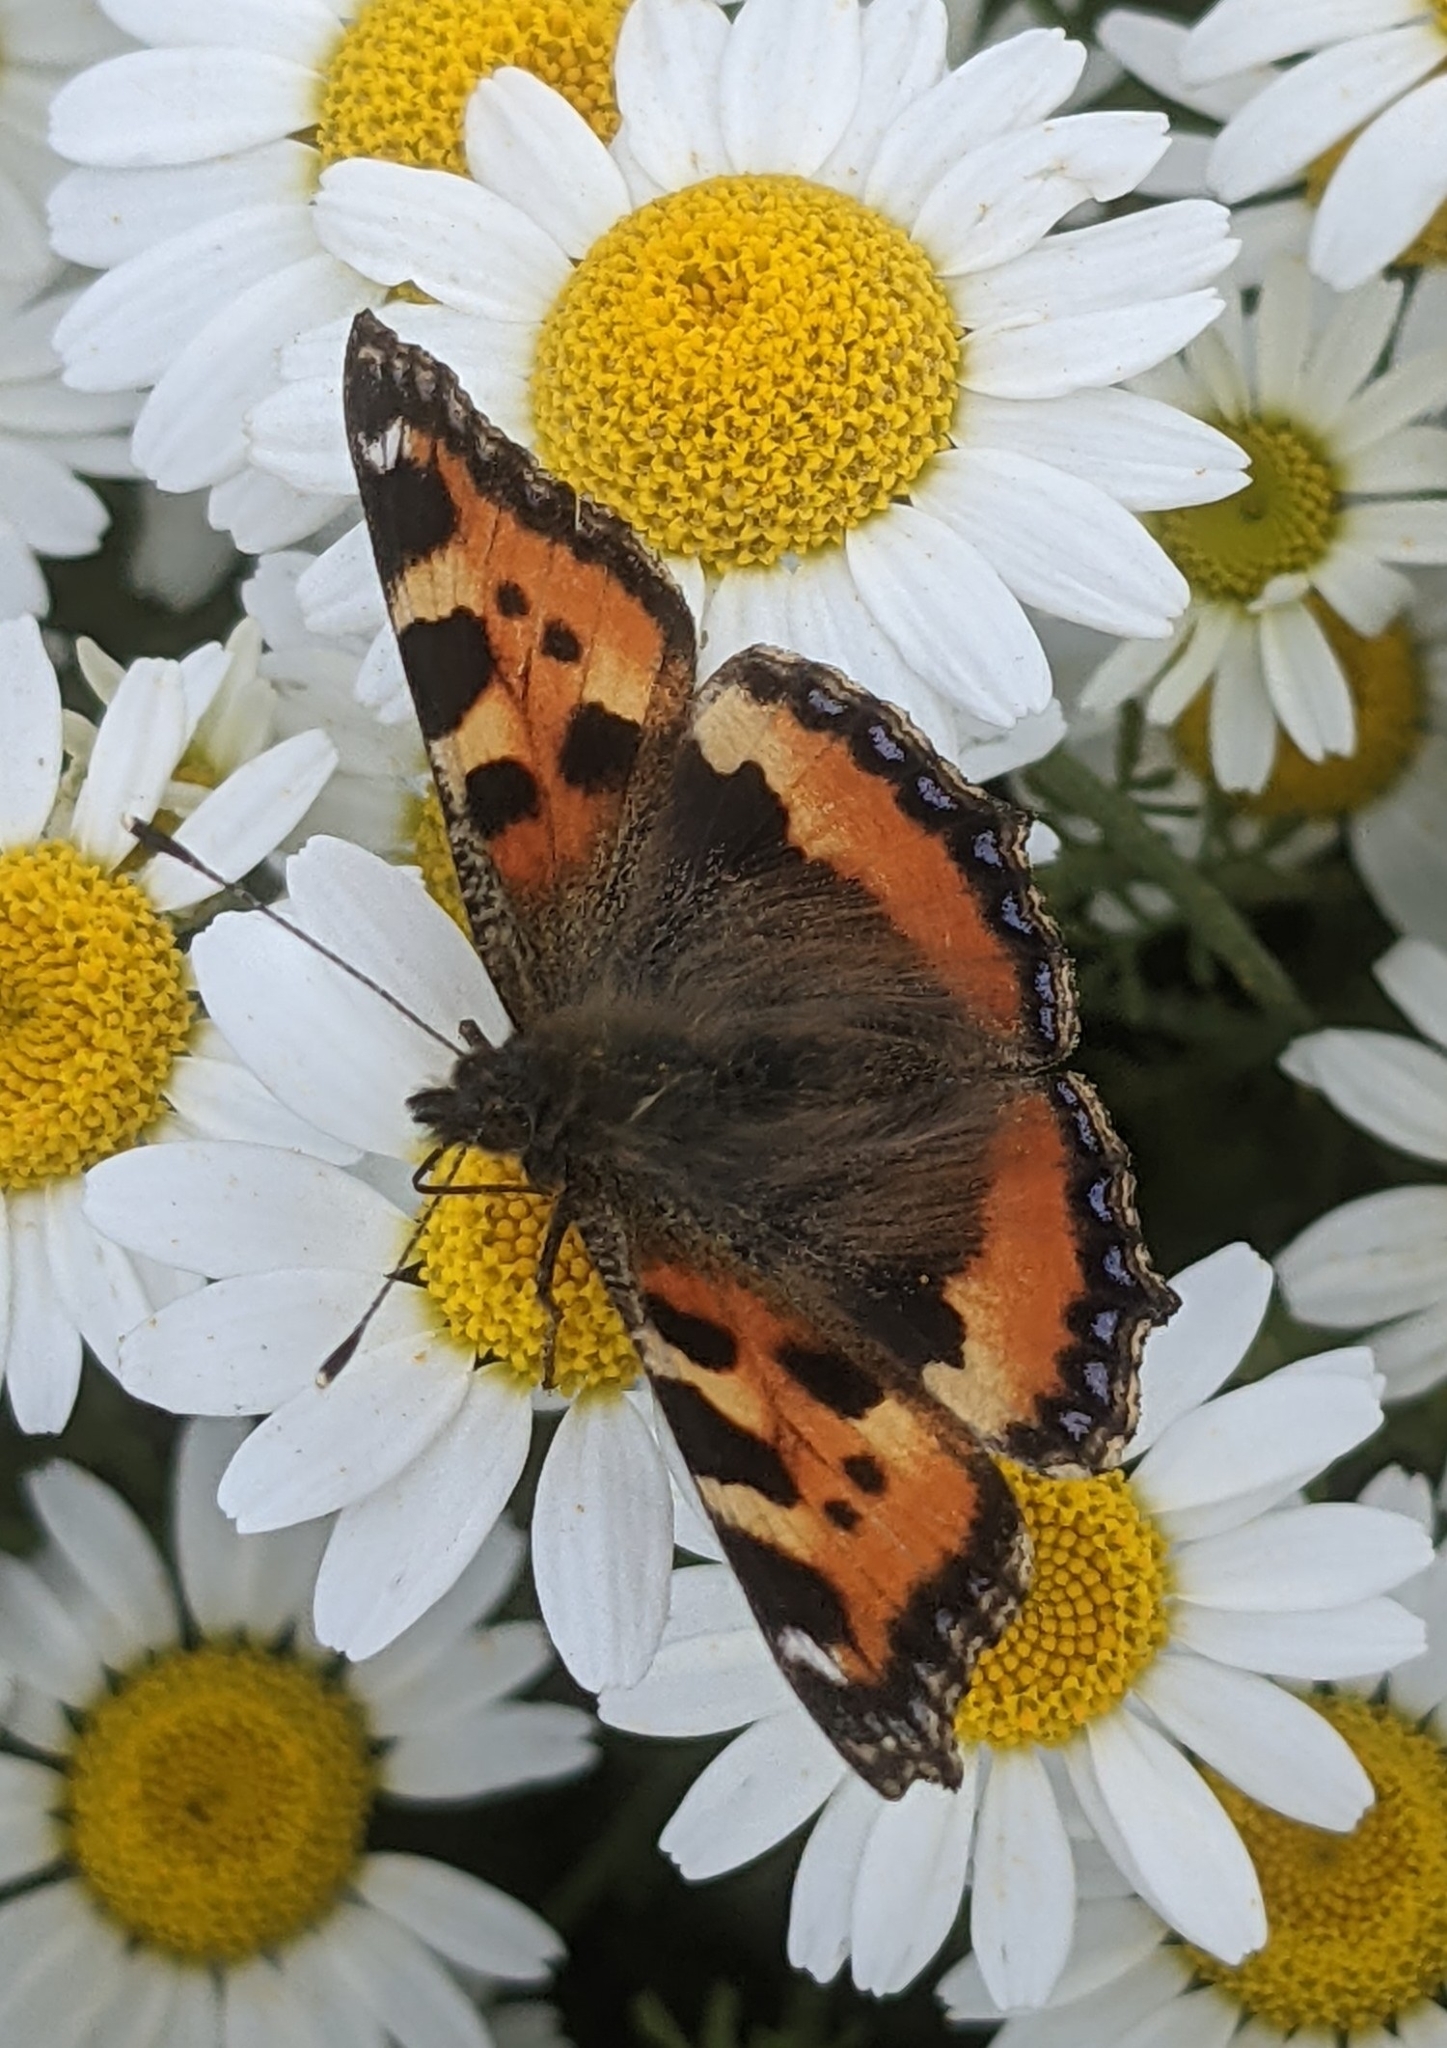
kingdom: Animalia
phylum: Arthropoda
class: Insecta
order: Lepidoptera
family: Nymphalidae
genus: Aglais
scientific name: Aglais urticae
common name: Small tortoiseshell
